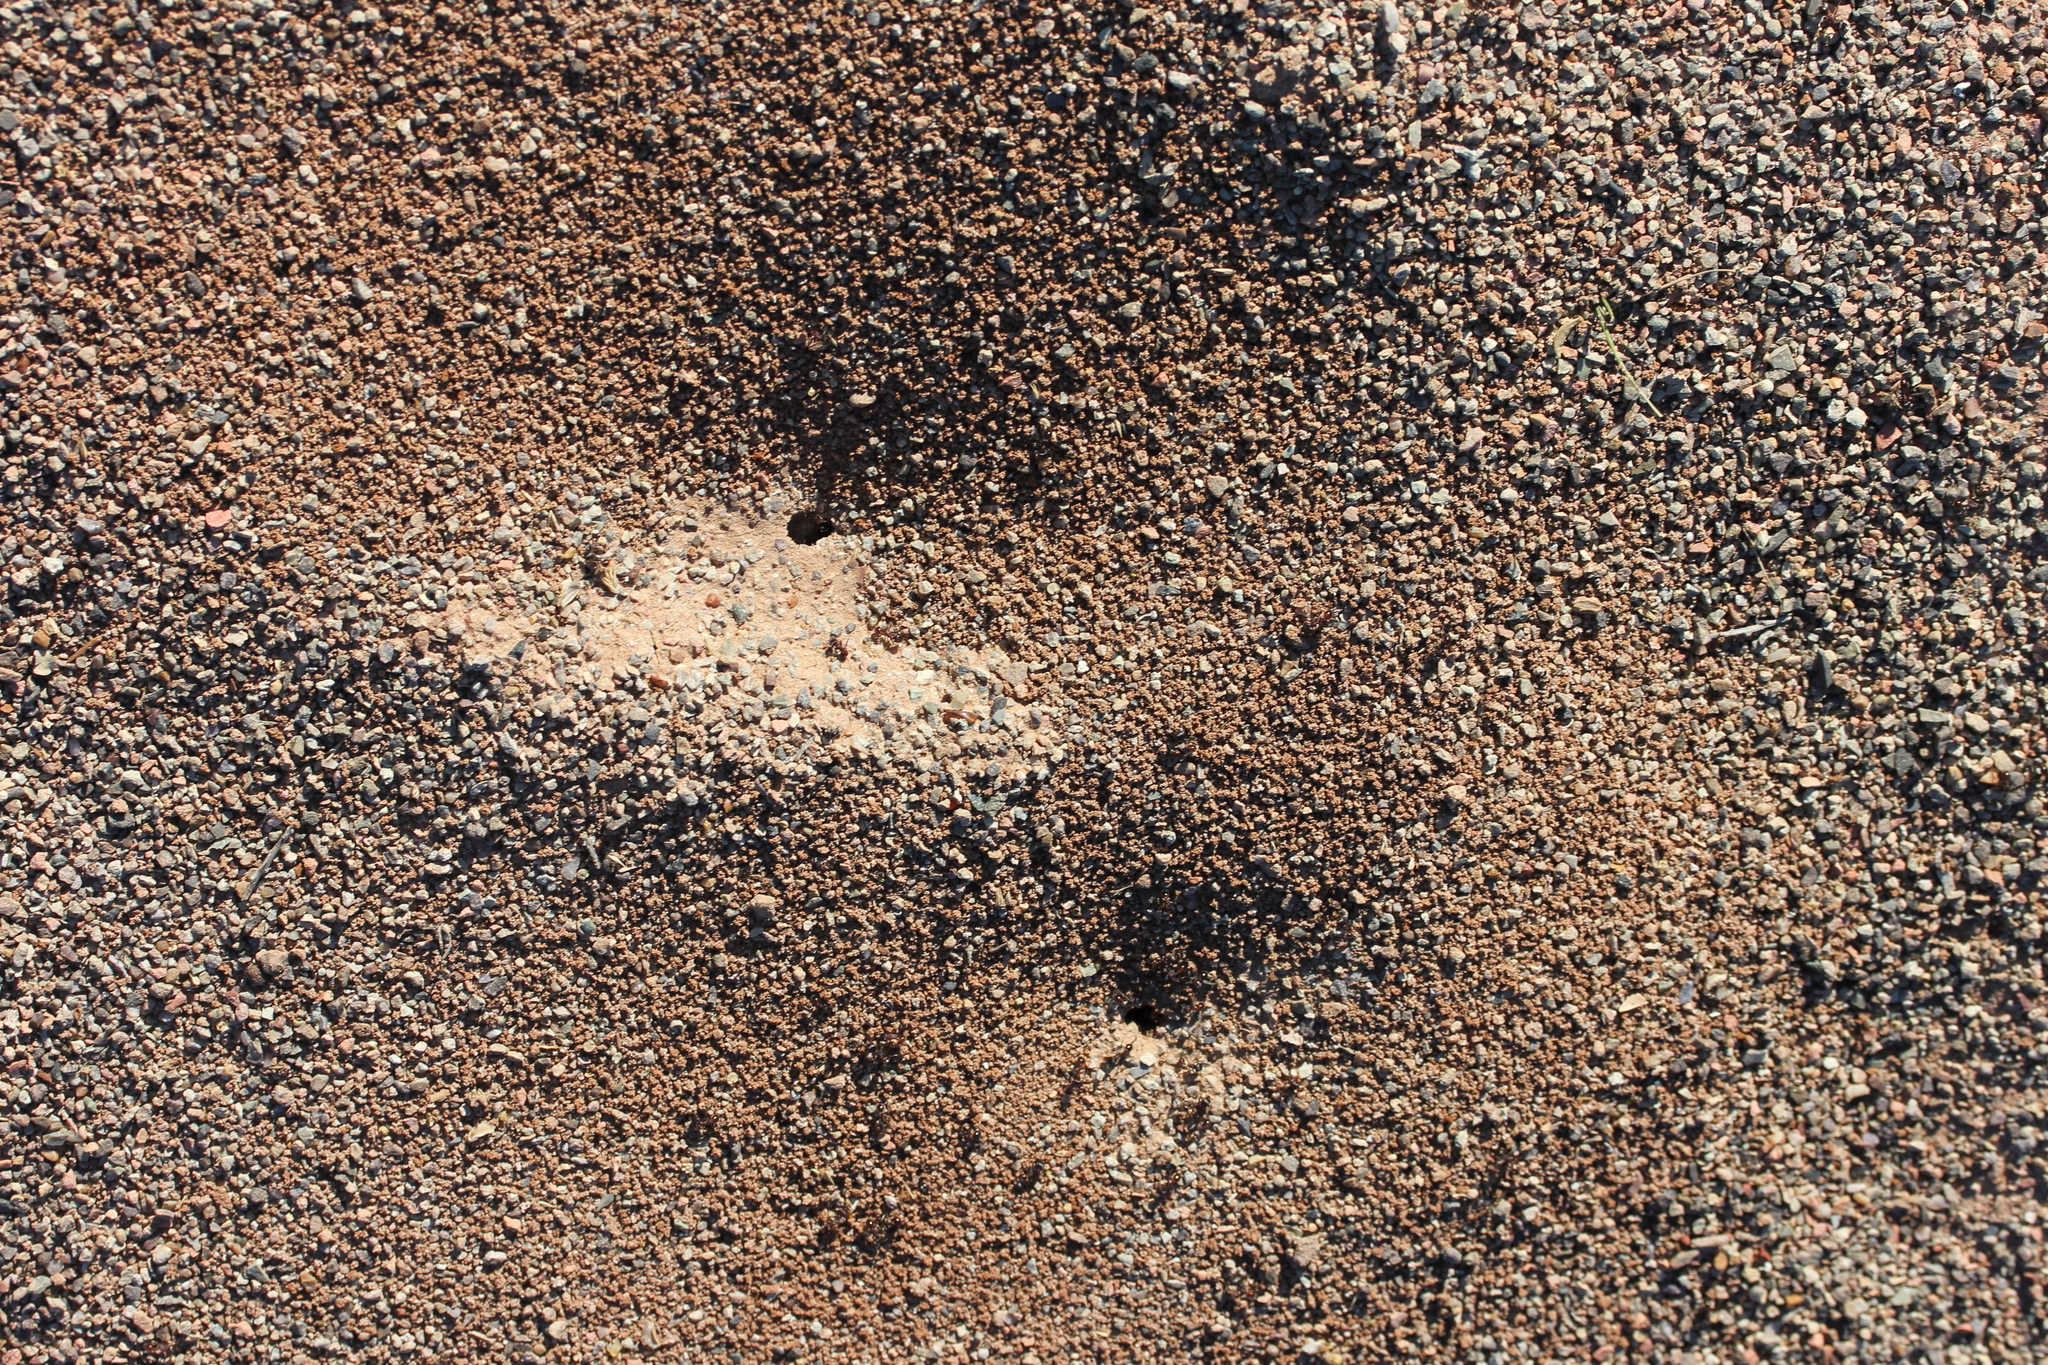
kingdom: Animalia
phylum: Arthropoda
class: Insecta
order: Hymenoptera
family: Formicidae
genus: Pogonomyrmex
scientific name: Pogonomyrmex rugosus
